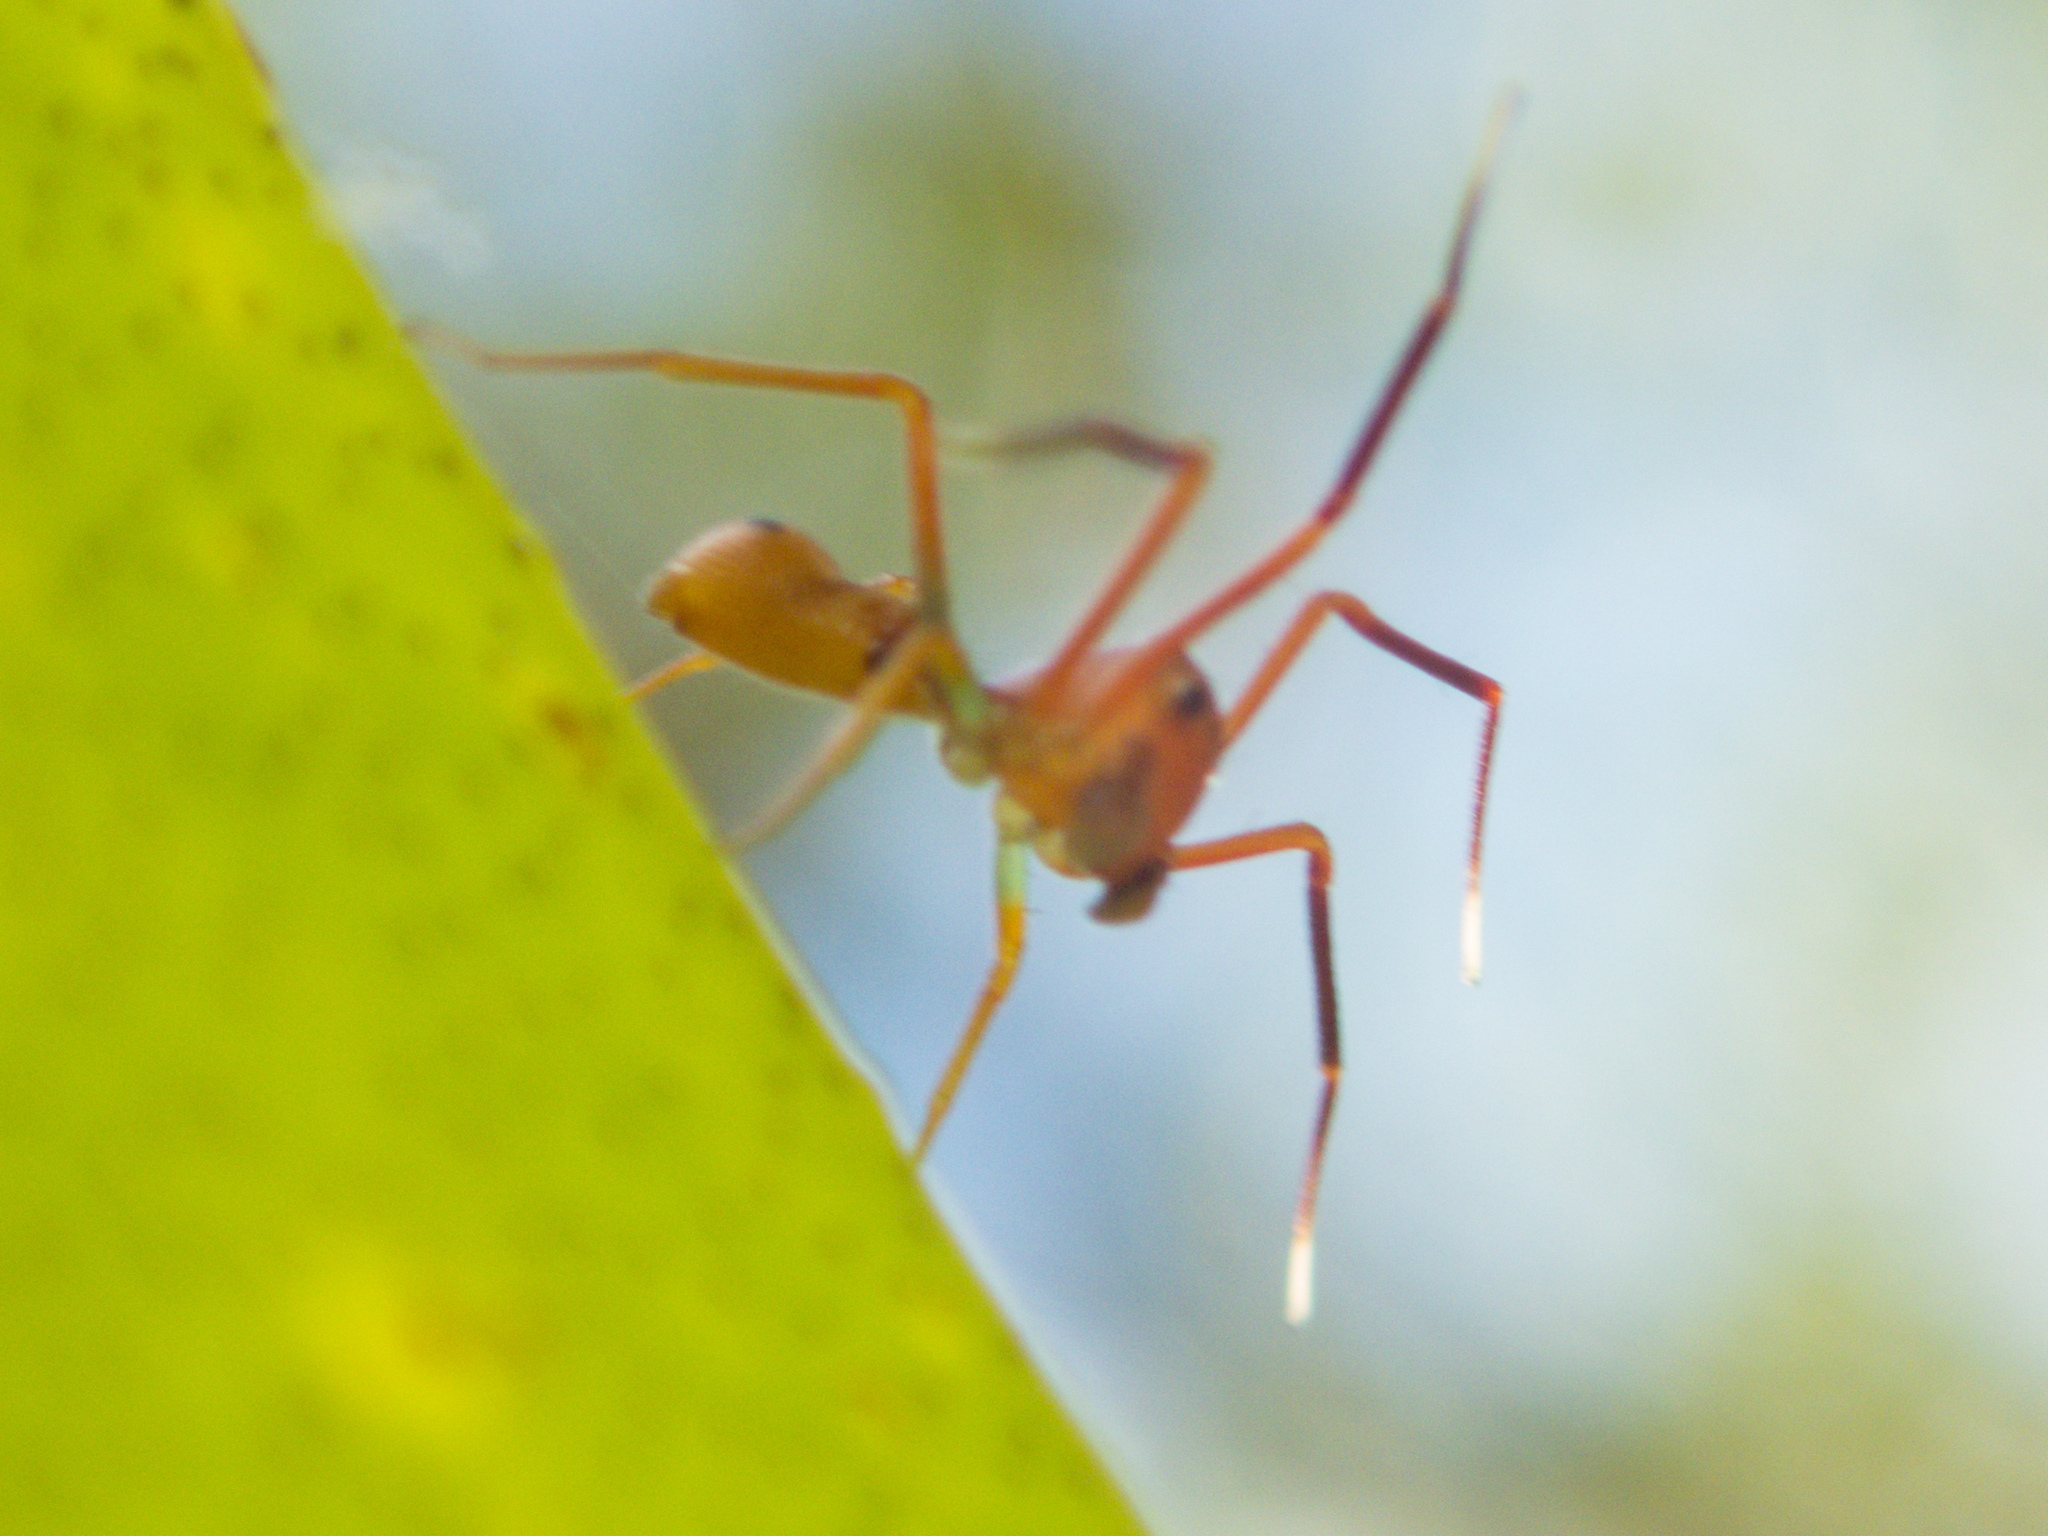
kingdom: Animalia
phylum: Arthropoda
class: Arachnida
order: Araneae
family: Thomisidae
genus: Amyciaea
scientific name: Amyciaea forticeps
